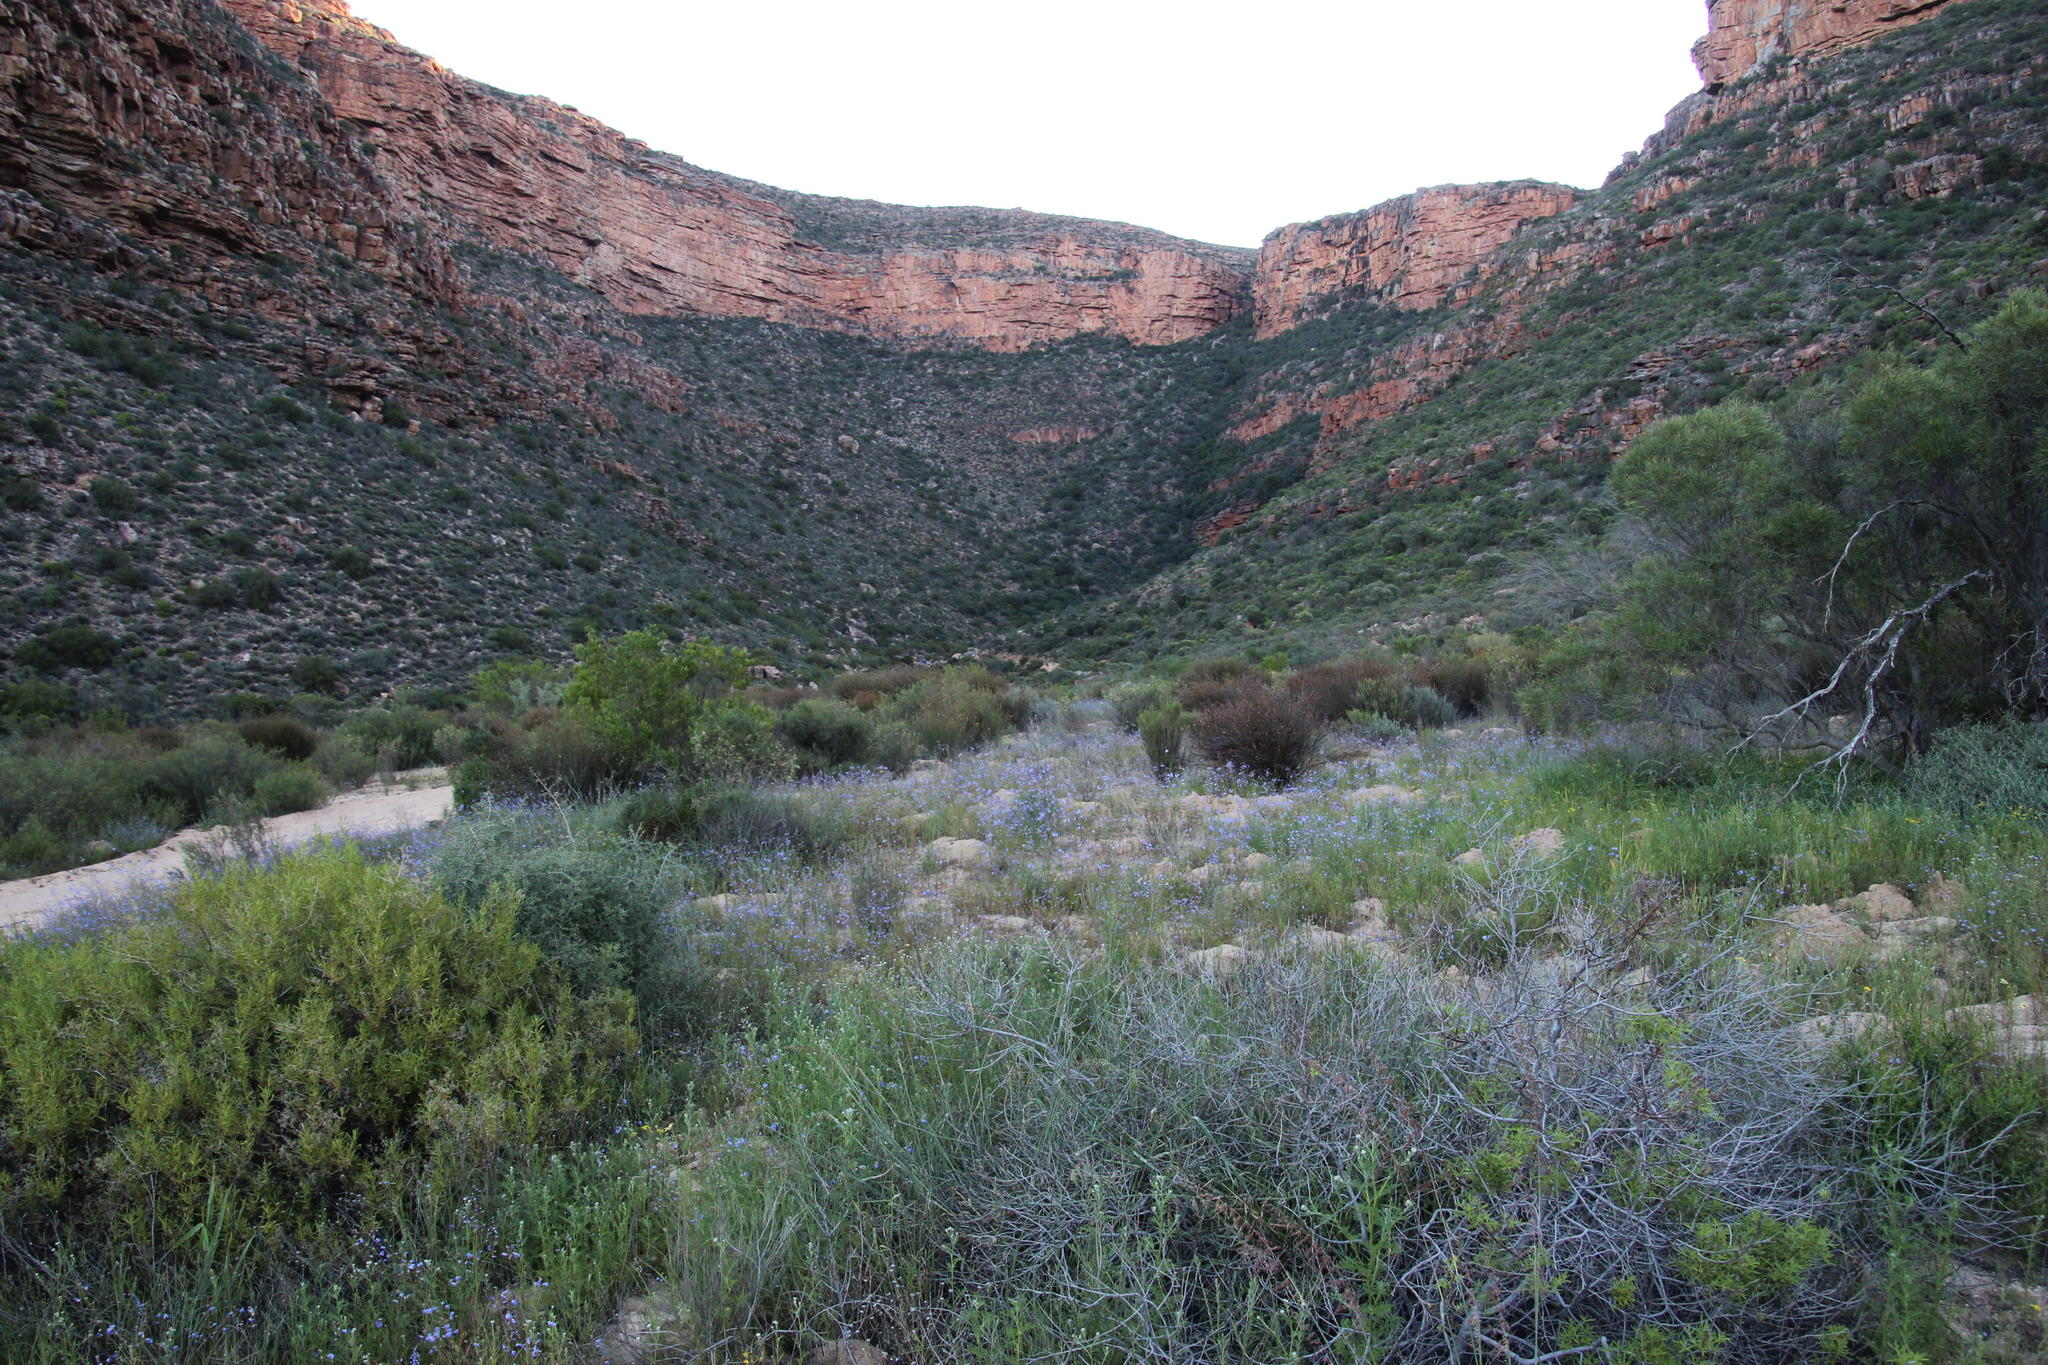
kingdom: Plantae
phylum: Tracheophyta
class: Magnoliopsida
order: Brassicales
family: Brassicaceae
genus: Heliophila
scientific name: Heliophila arenaria
